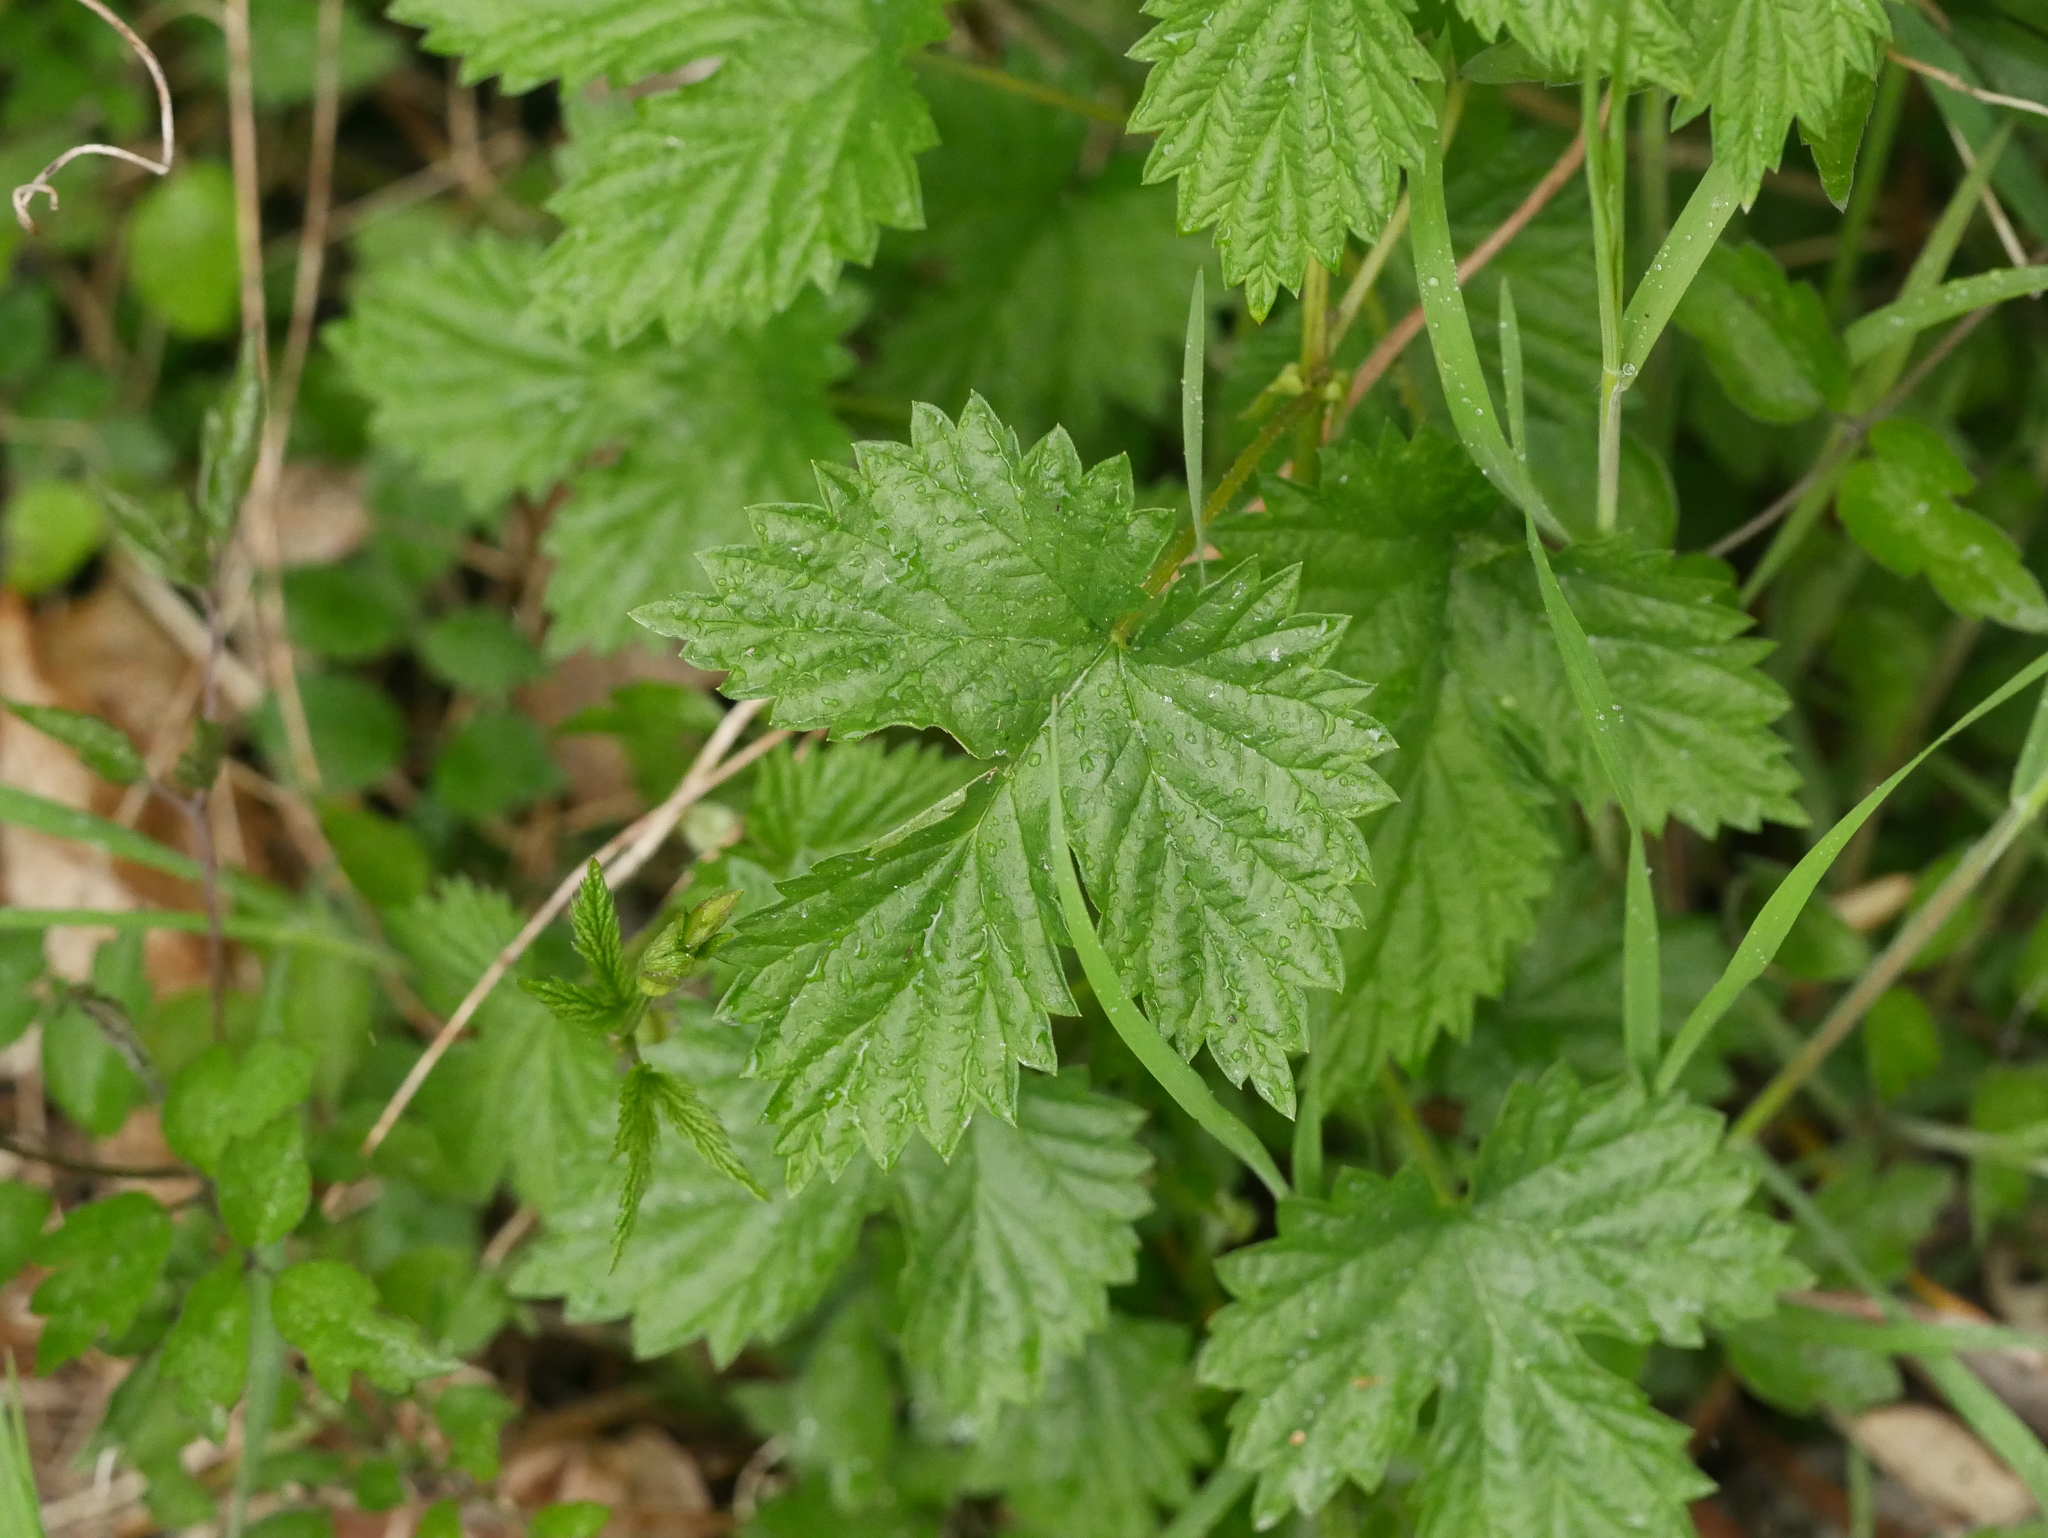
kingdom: Plantae
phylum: Tracheophyta
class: Magnoliopsida
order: Rosales
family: Cannabaceae
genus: Humulus
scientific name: Humulus lupulus
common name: Hop
